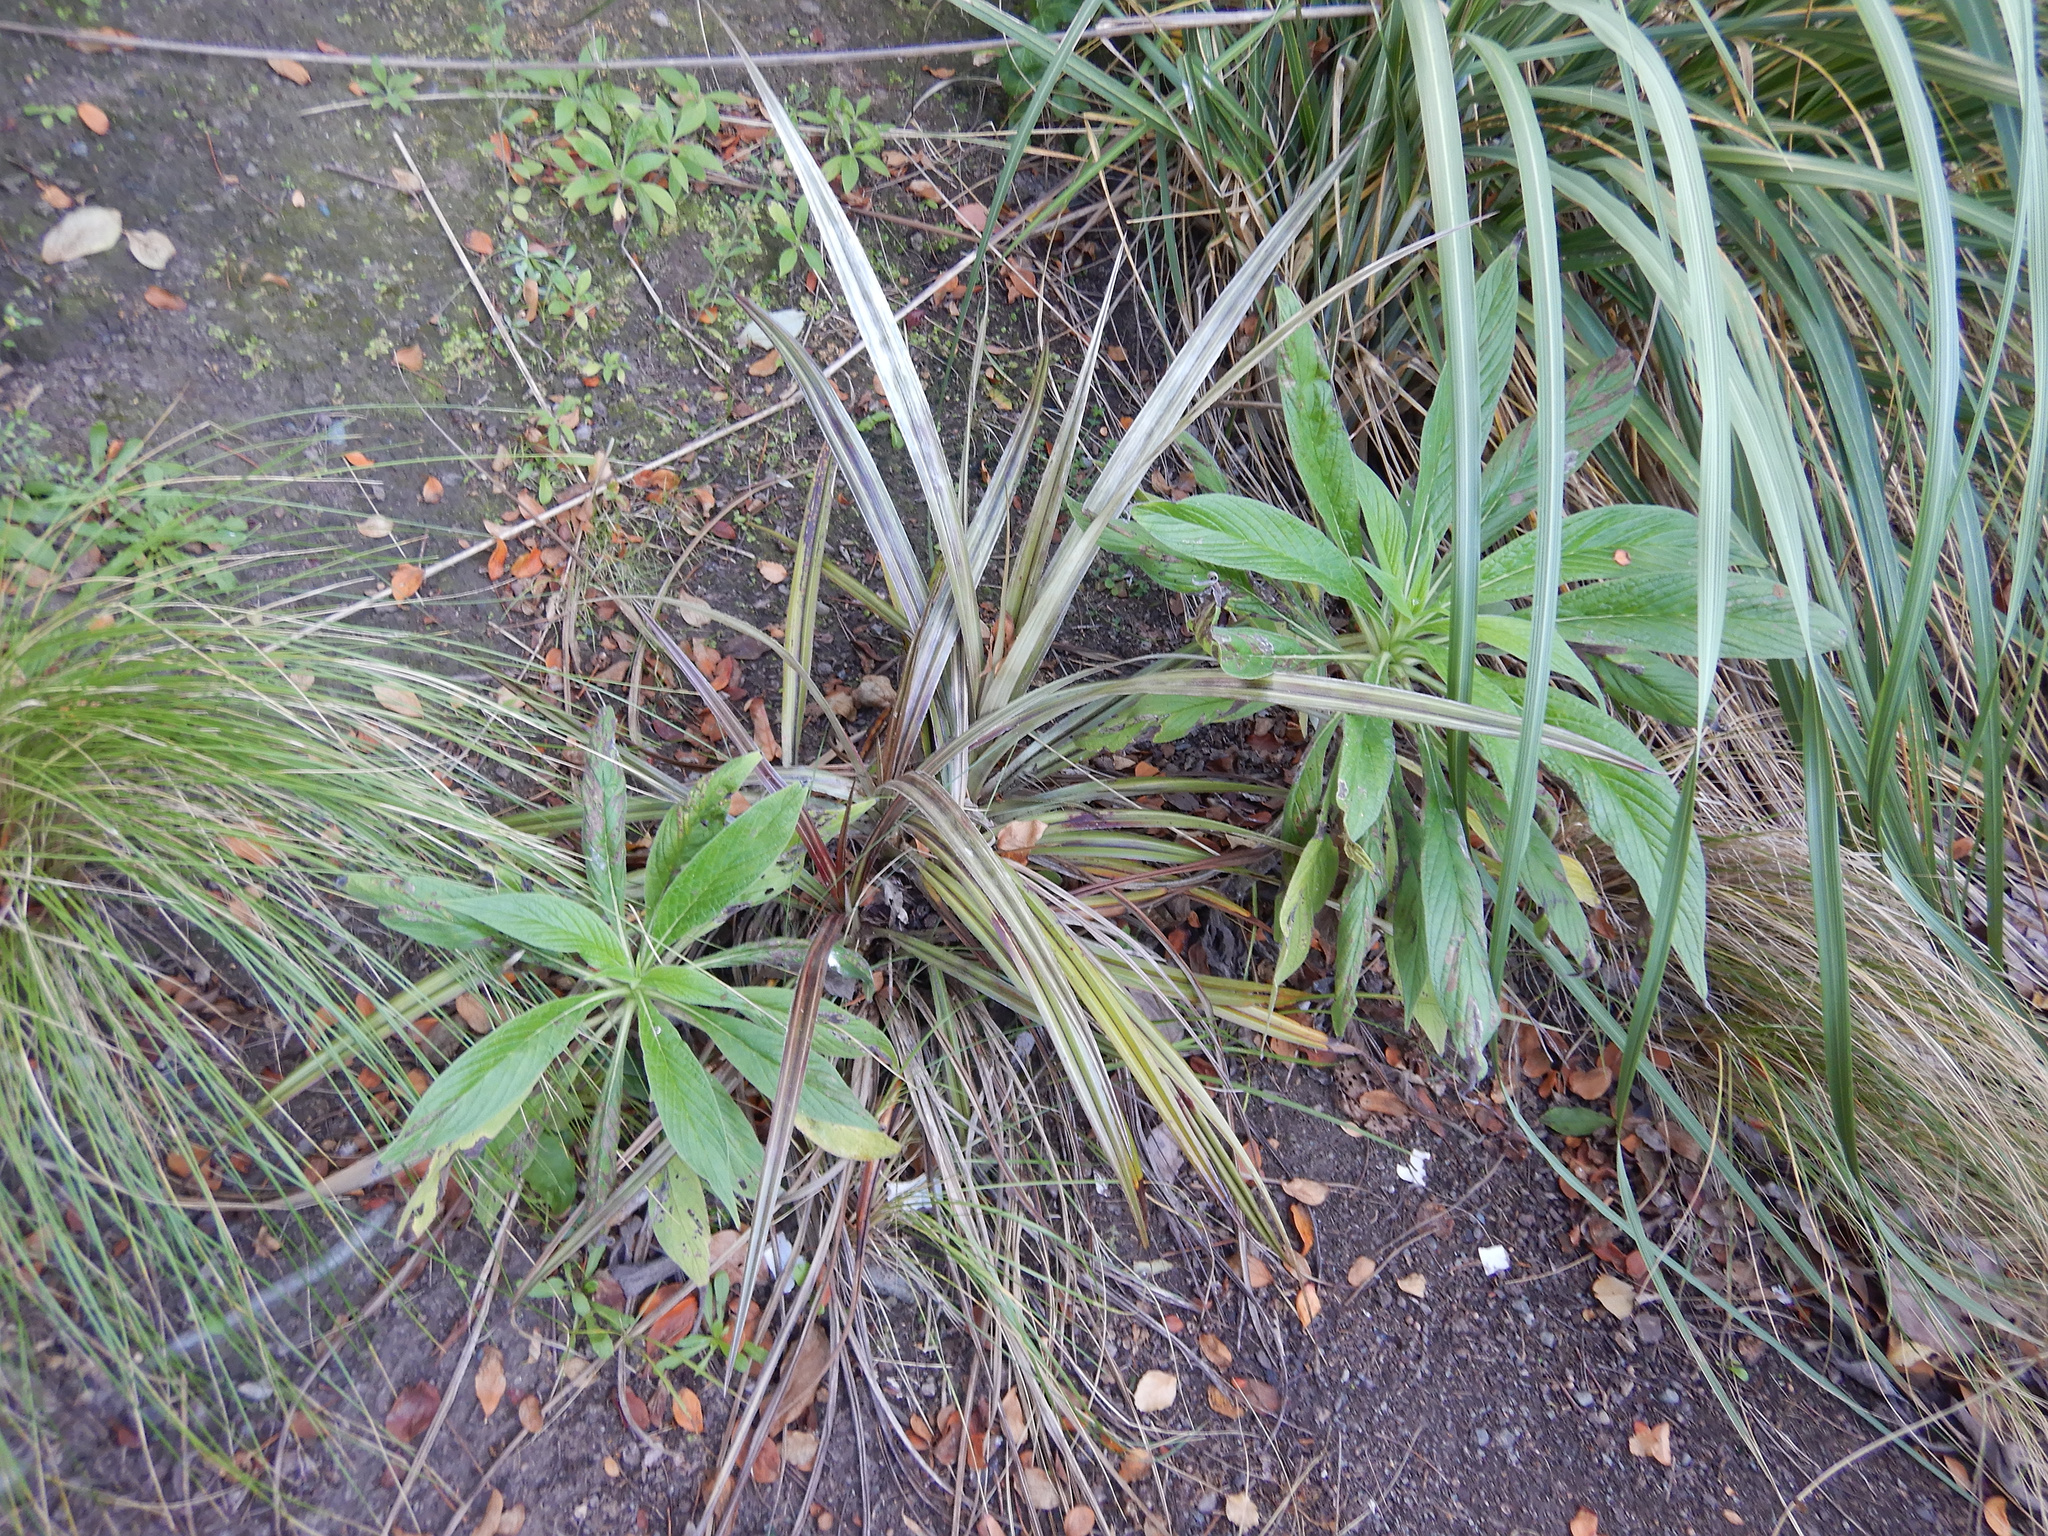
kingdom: Plantae
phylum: Tracheophyta
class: Magnoliopsida
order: Boraginales
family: Boraginaceae
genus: Echium
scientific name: Echium pininana
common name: Giant viper's-bugloss
